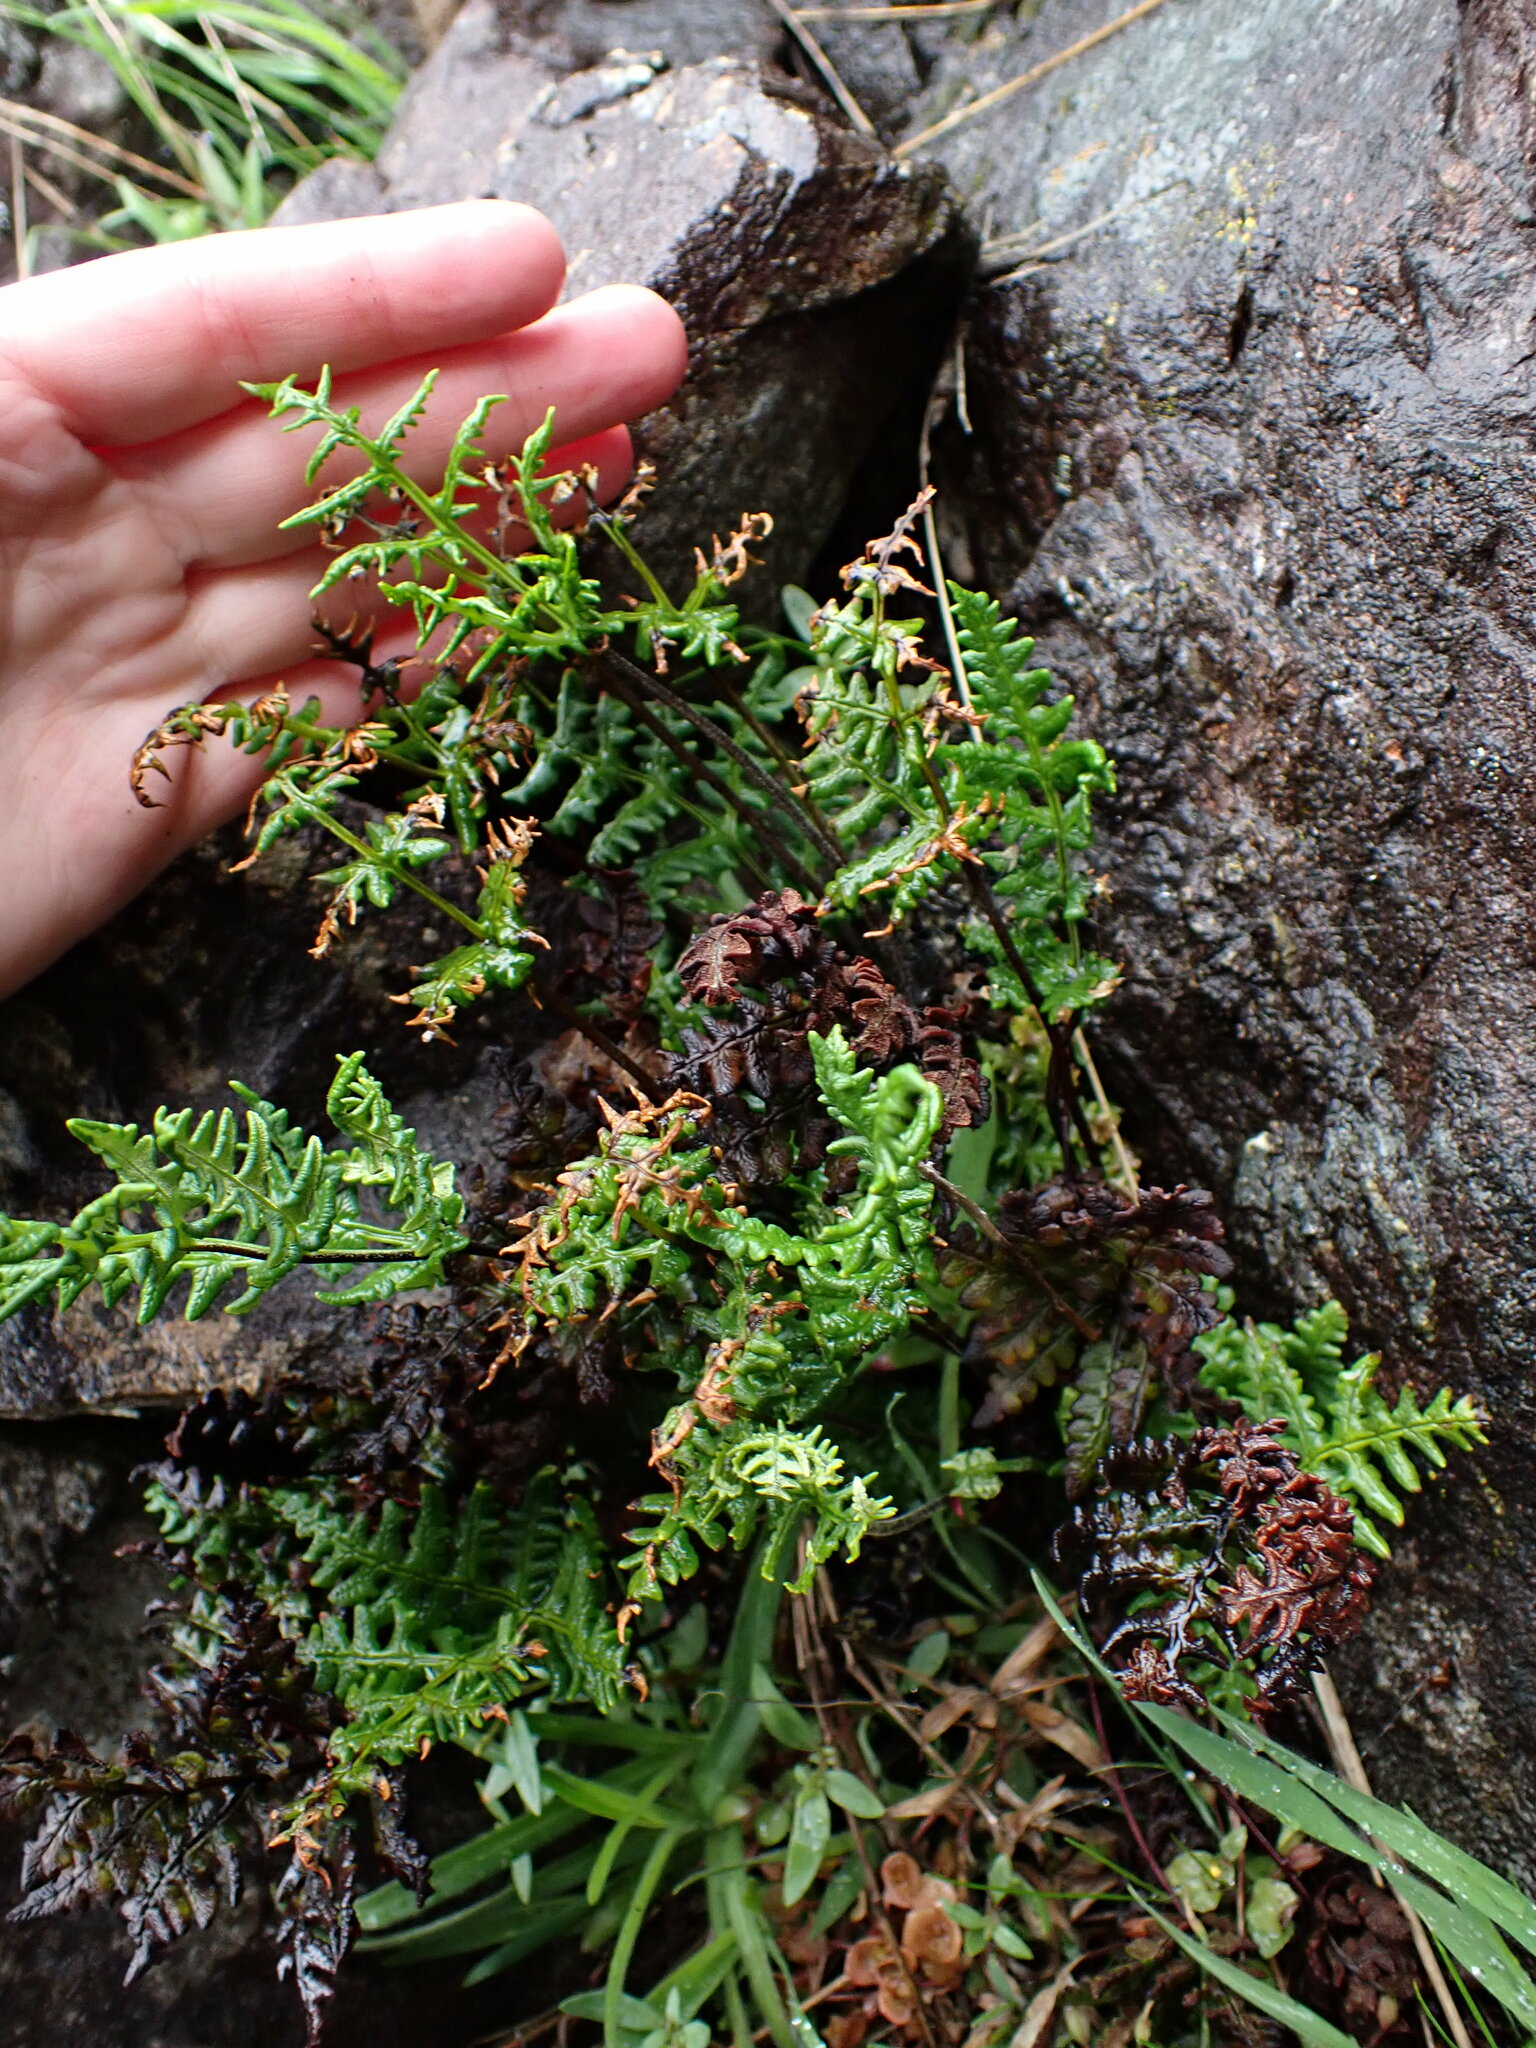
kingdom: Plantae
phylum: Tracheophyta
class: Polypodiopsida
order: Polypodiales
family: Pteridaceae
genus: Pentagramma
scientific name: Pentagramma triangularis
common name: Gold fern
